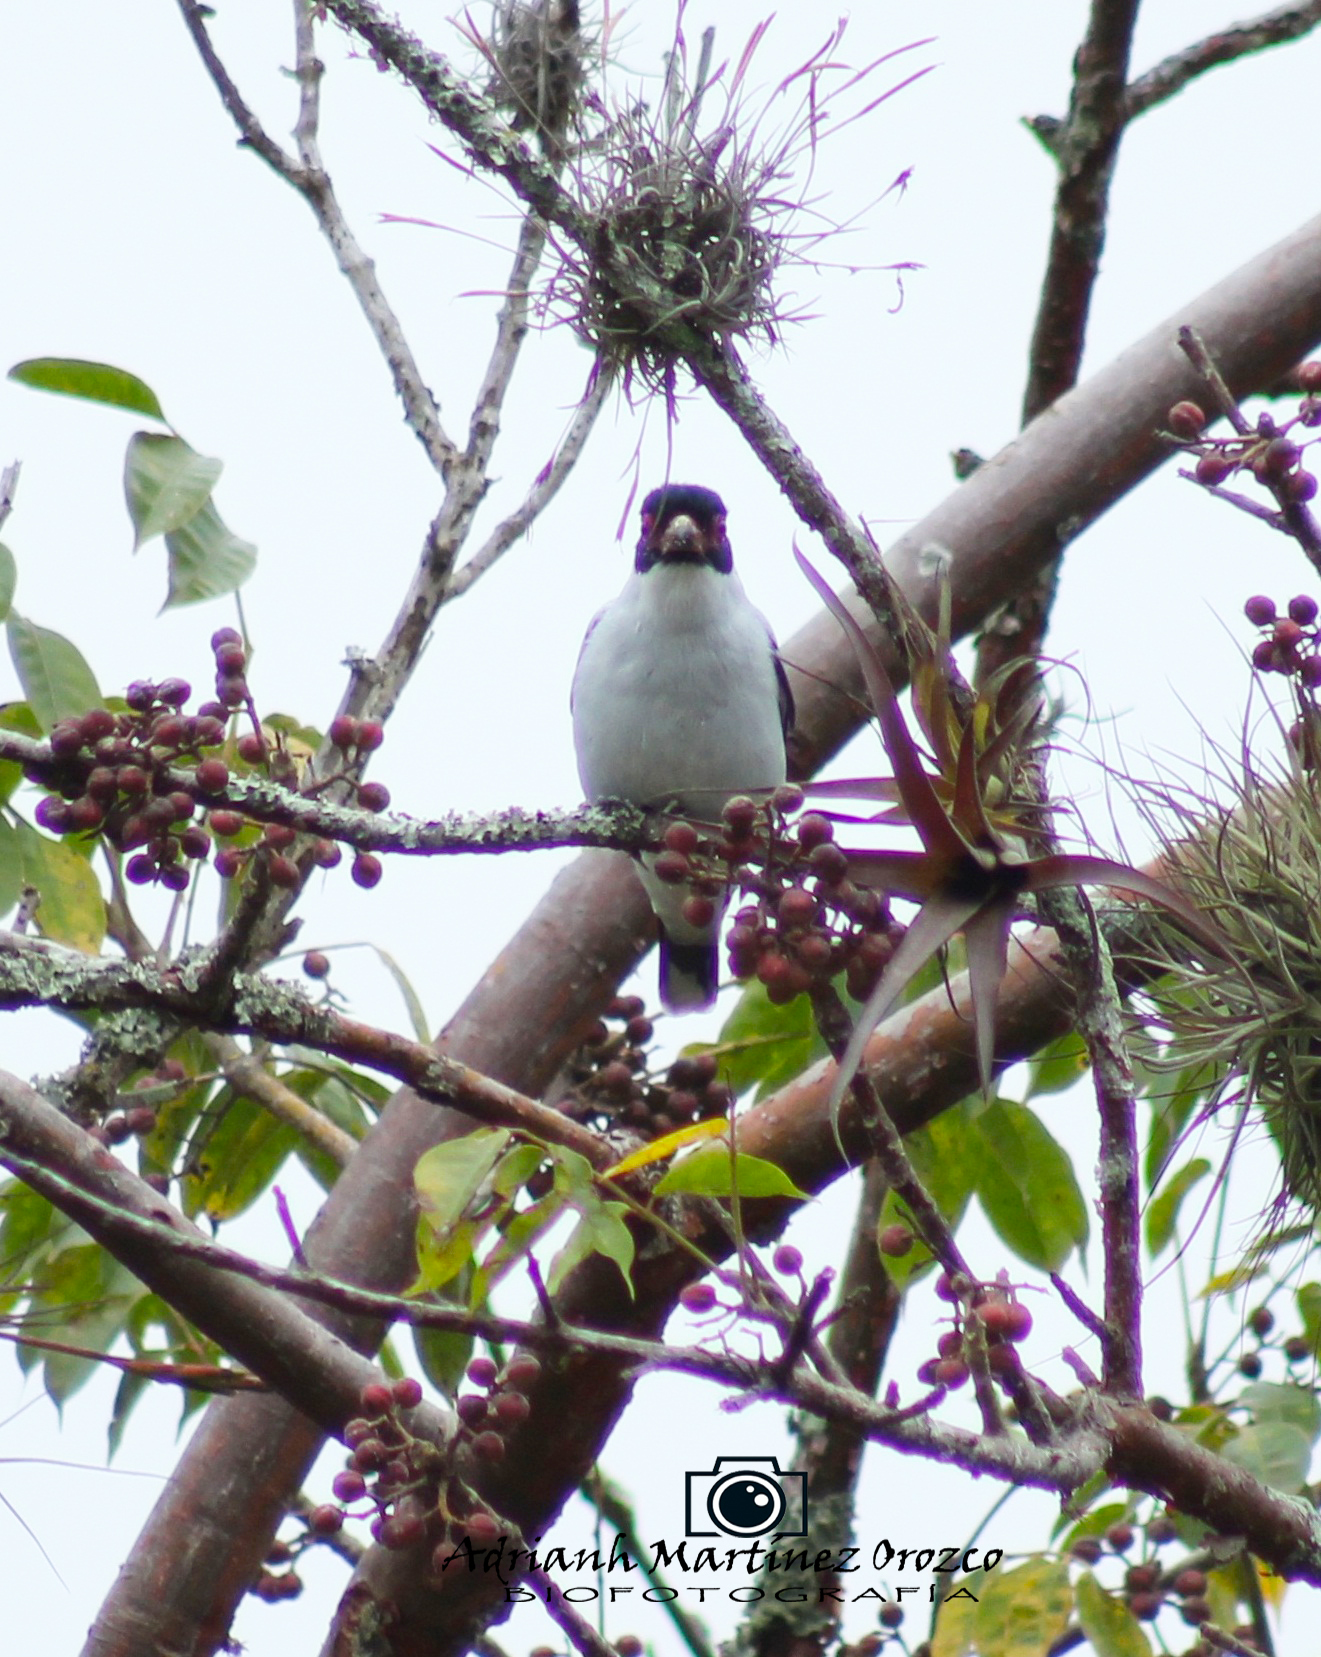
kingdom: Animalia
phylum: Chordata
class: Aves
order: Passeriformes
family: Cotingidae
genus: Tityra
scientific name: Tityra semifasciata
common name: Masked tityra
